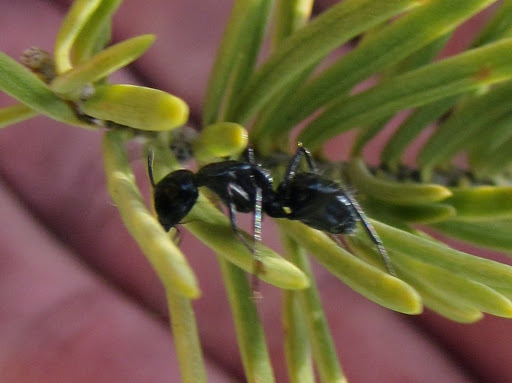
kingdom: Animalia
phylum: Arthropoda
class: Insecta
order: Hymenoptera
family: Formicidae
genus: Camponotus
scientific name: Camponotus
